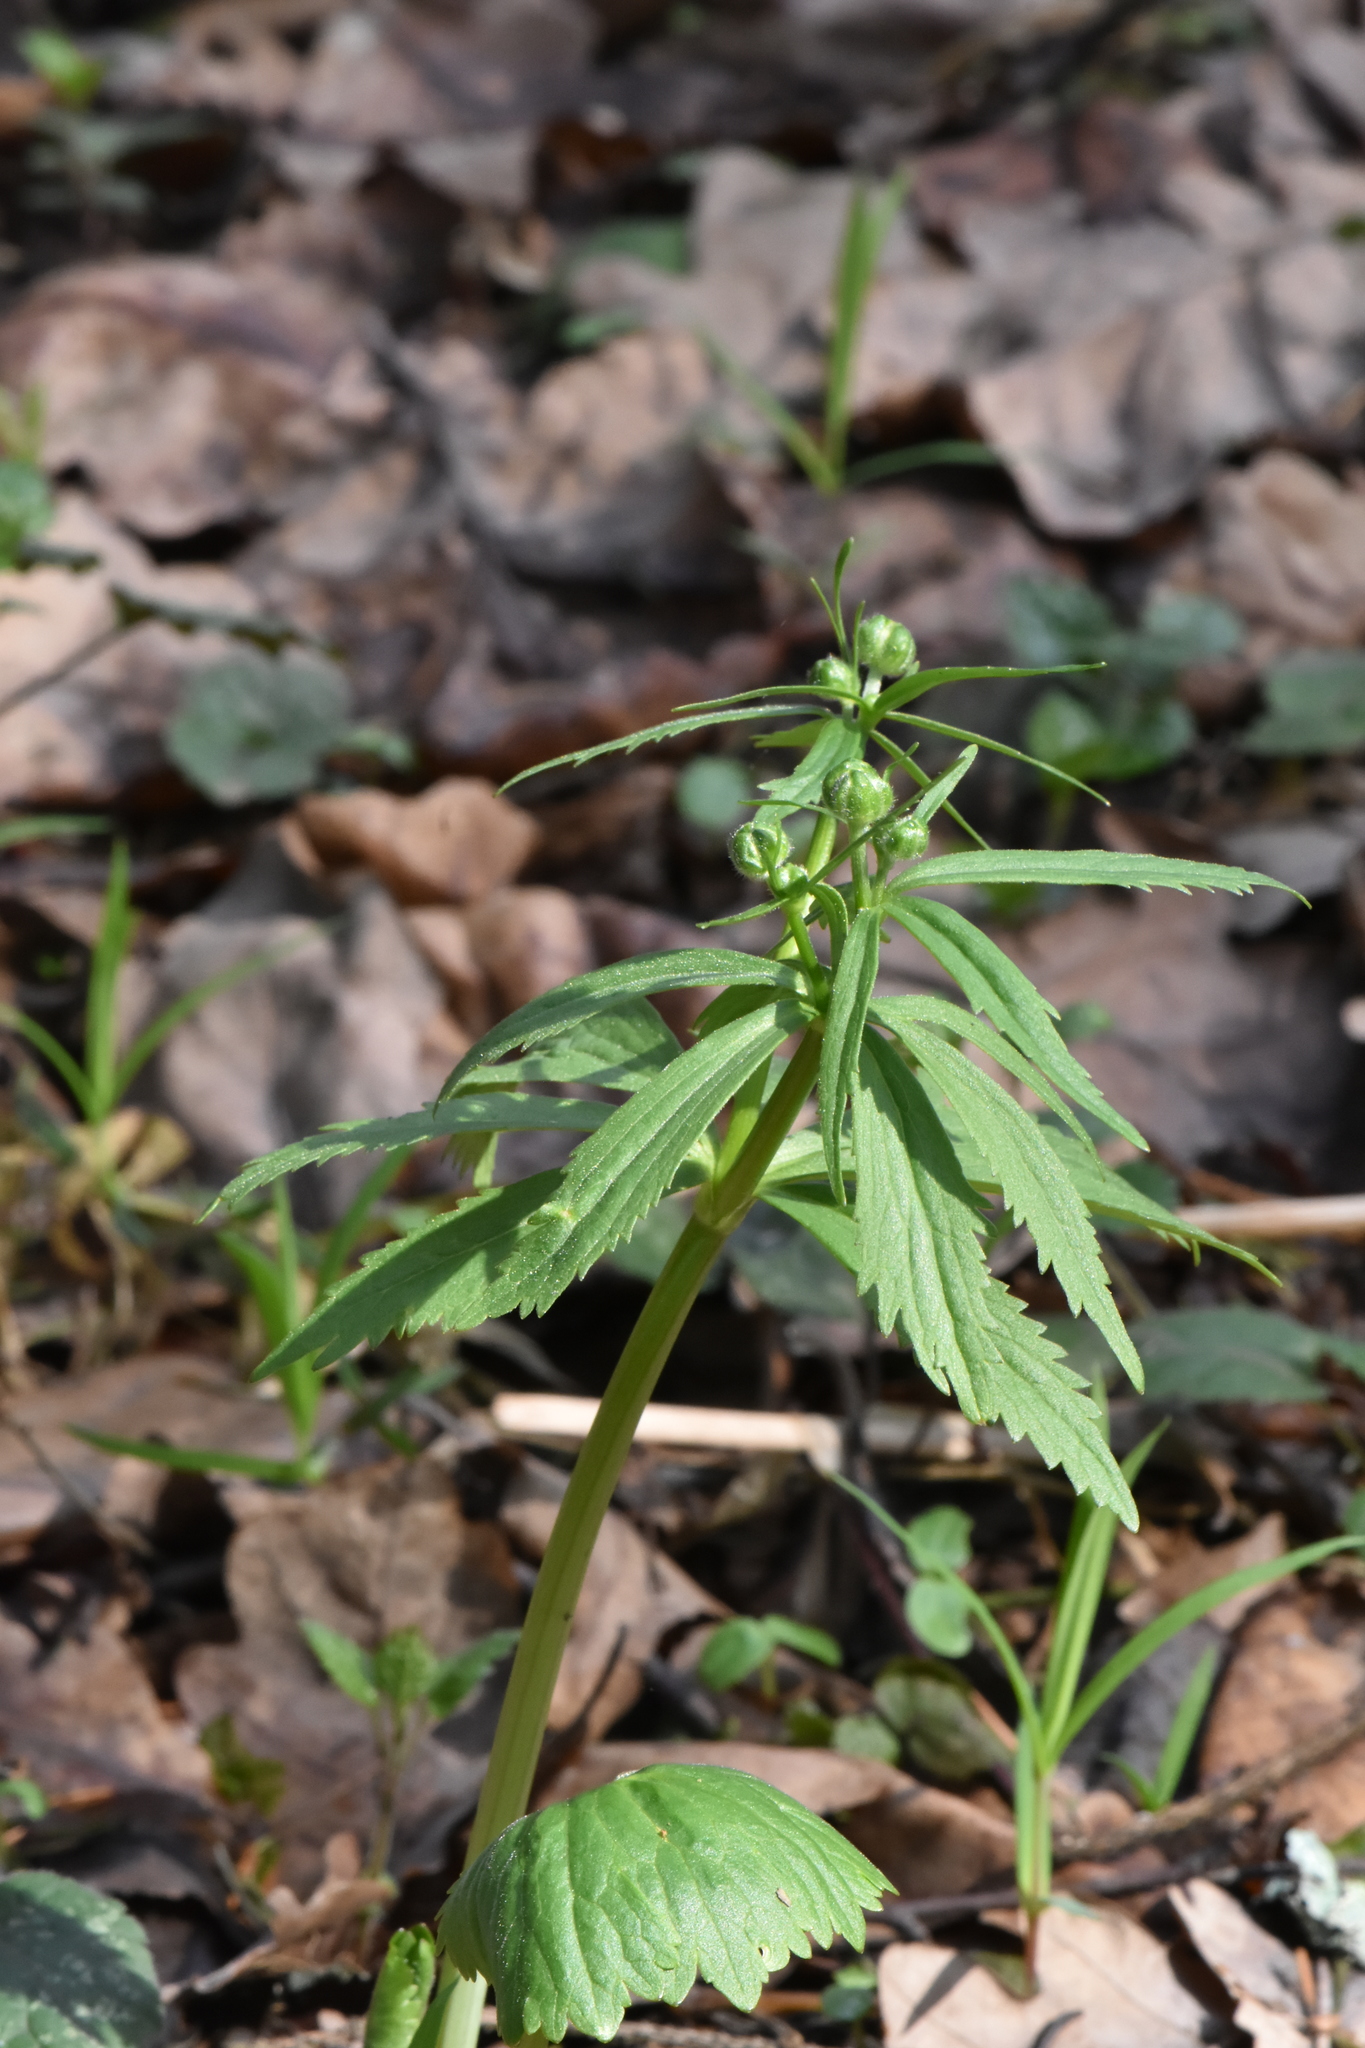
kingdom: Plantae
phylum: Tracheophyta
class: Magnoliopsida
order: Ranunculales
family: Ranunculaceae
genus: Ranunculus
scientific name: Ranunculus cassubicus
